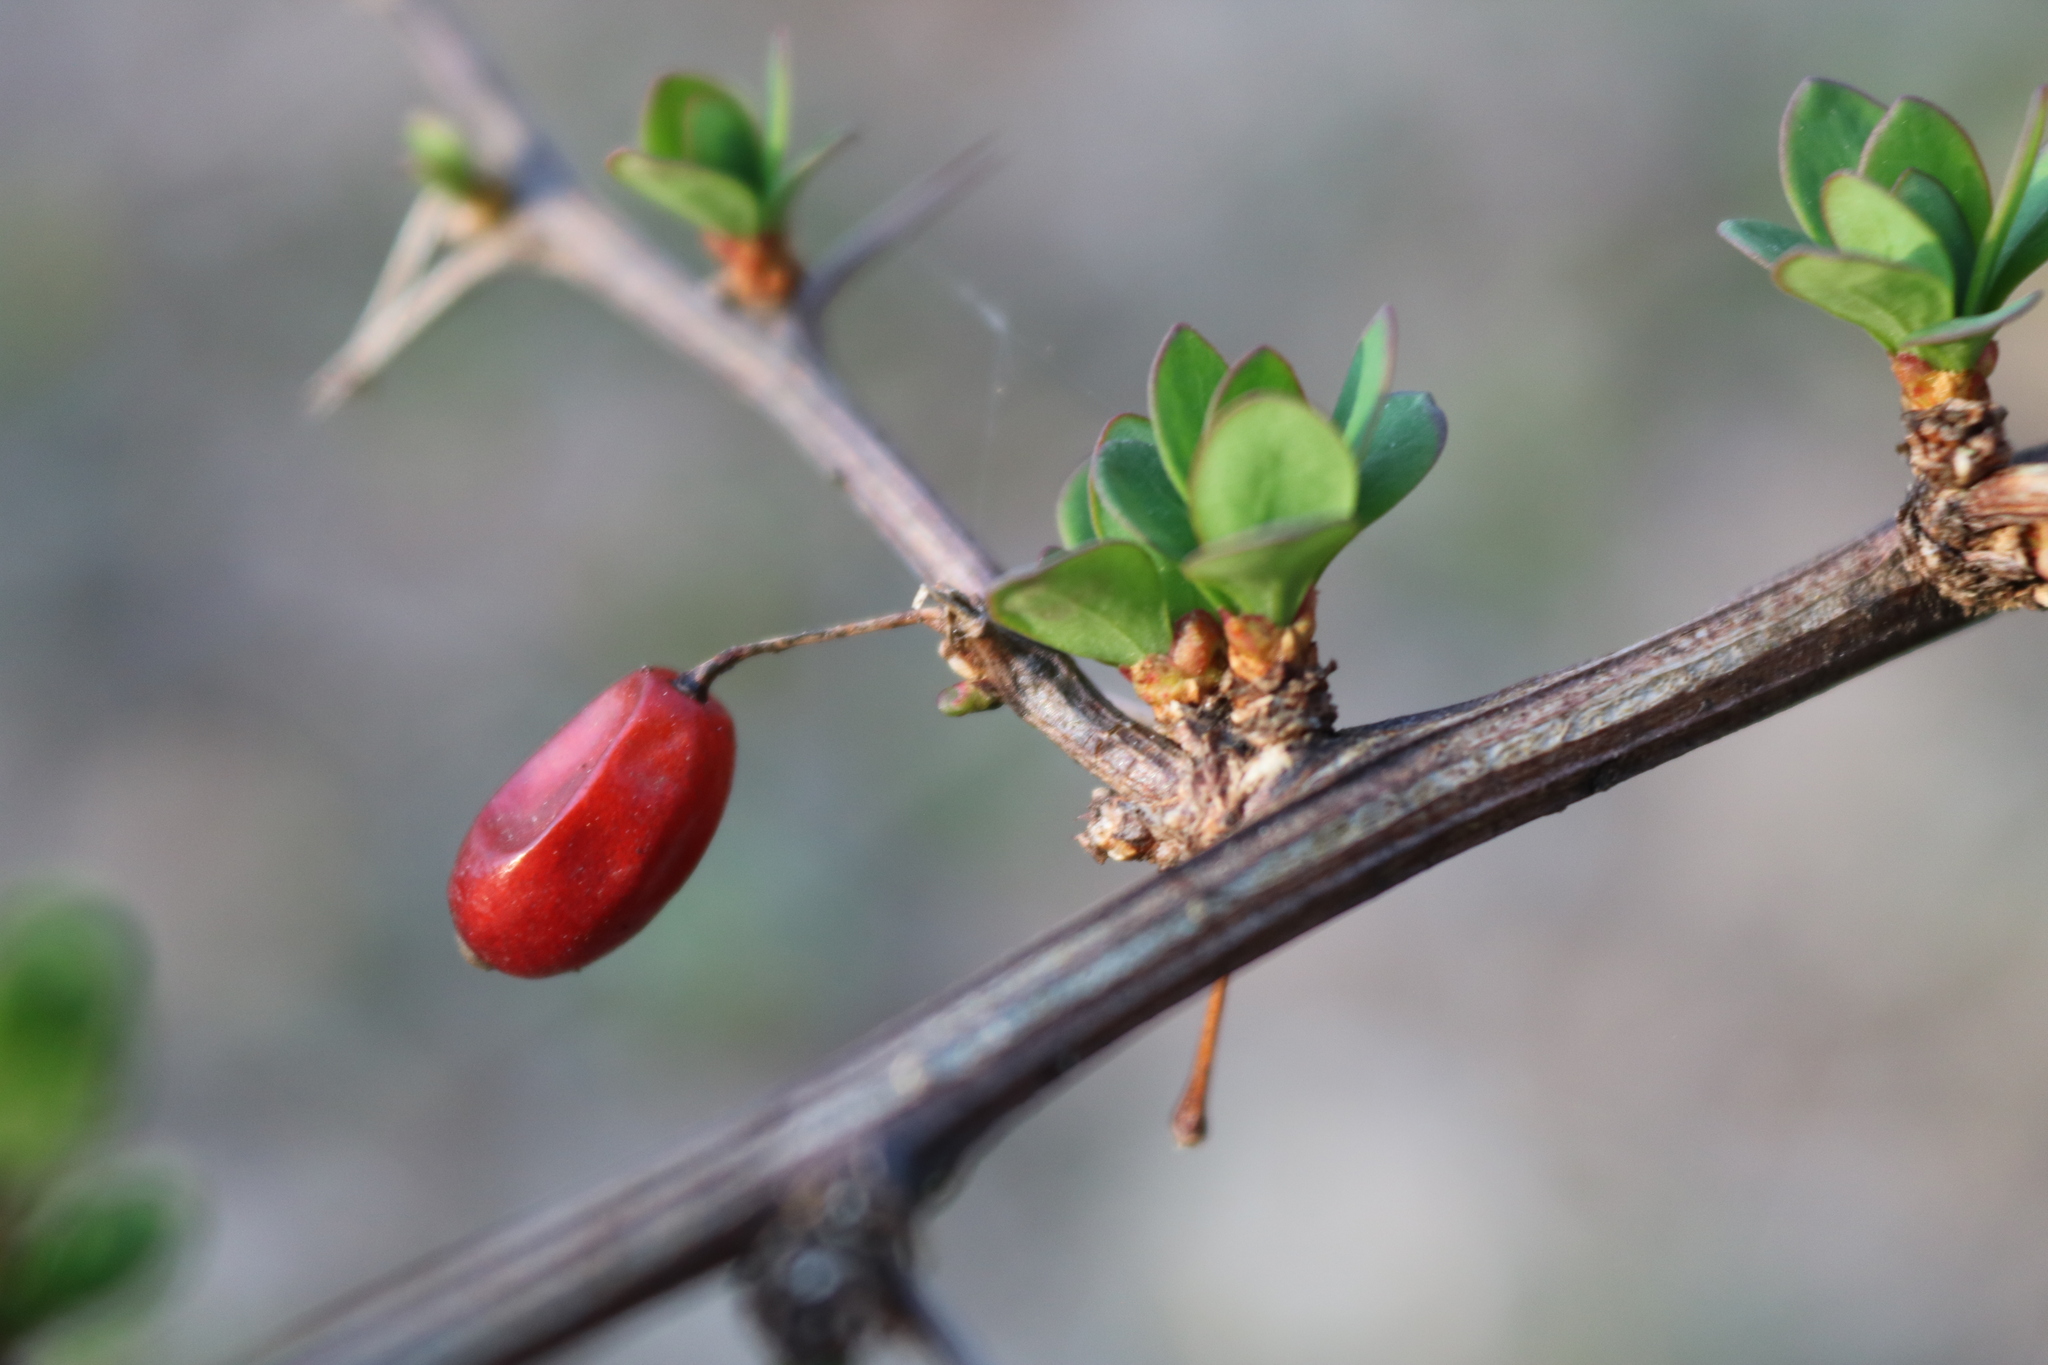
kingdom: Plantae
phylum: Tracheophyta
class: Magnoliopsida
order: Ranunculales
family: Berberidaceae
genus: Berberis
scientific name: Berberis thunbergii
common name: Japanese barberry
